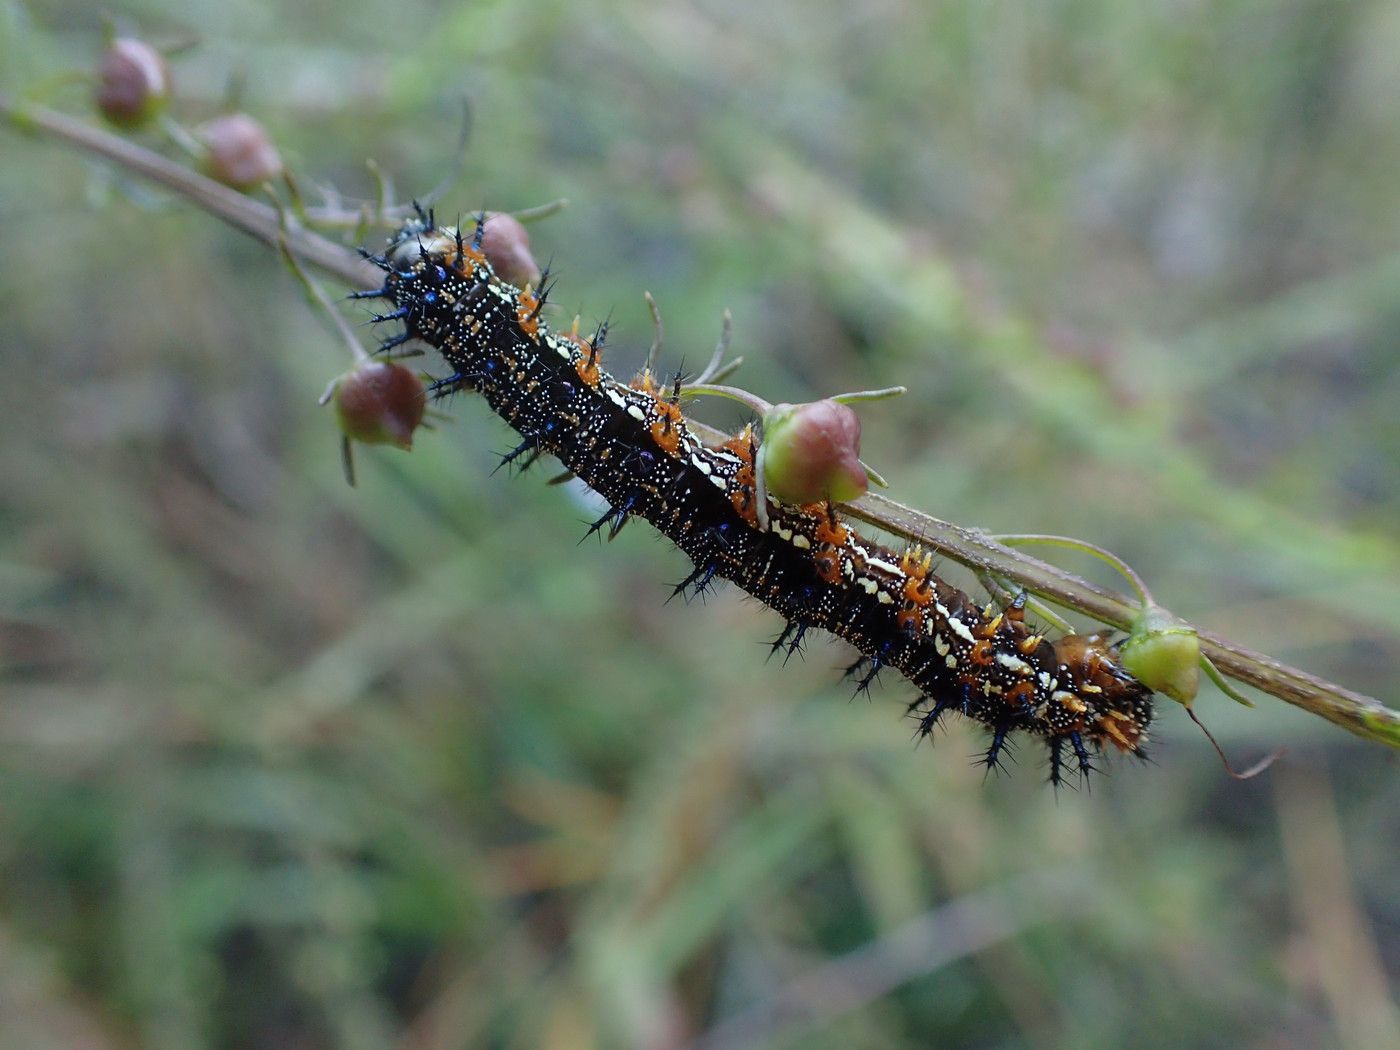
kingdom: Animalia
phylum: Arthropoda
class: Insecta
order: Lepidoptera
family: Nymphalidae
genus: Junonia
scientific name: Junonia coenia
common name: Common buckeye
